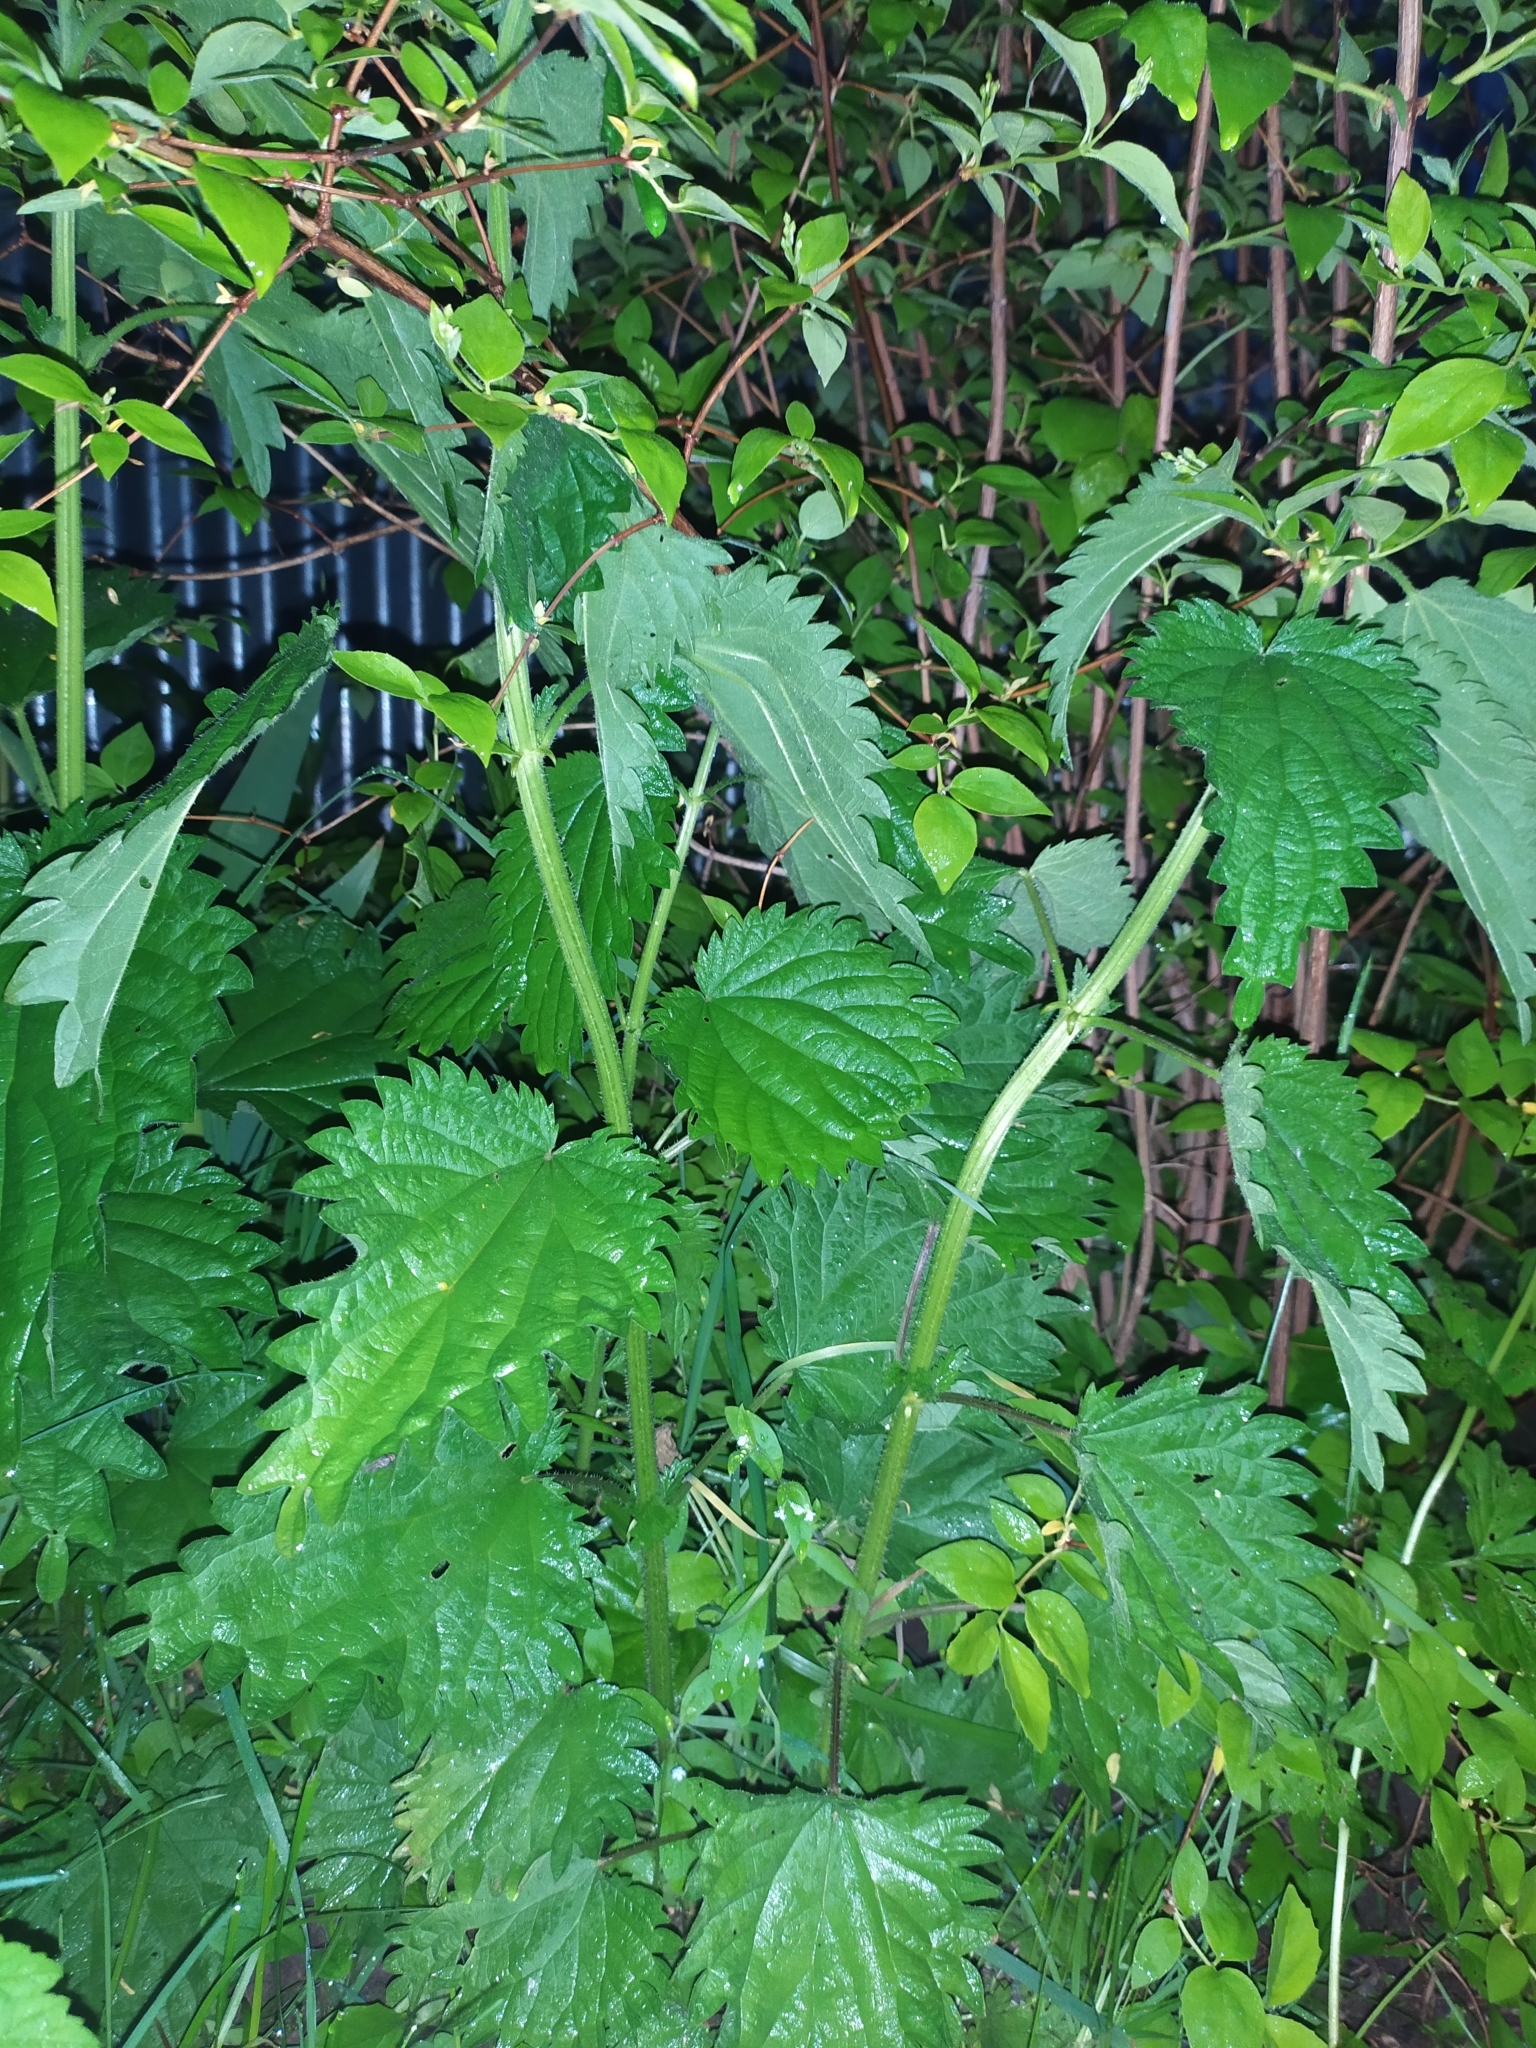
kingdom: Plantae
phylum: Tracheophyta
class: Magnoliopsida
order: Rosales
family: Urticaceae
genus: Urtica
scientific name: Urtica dioica
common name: Common nettle
